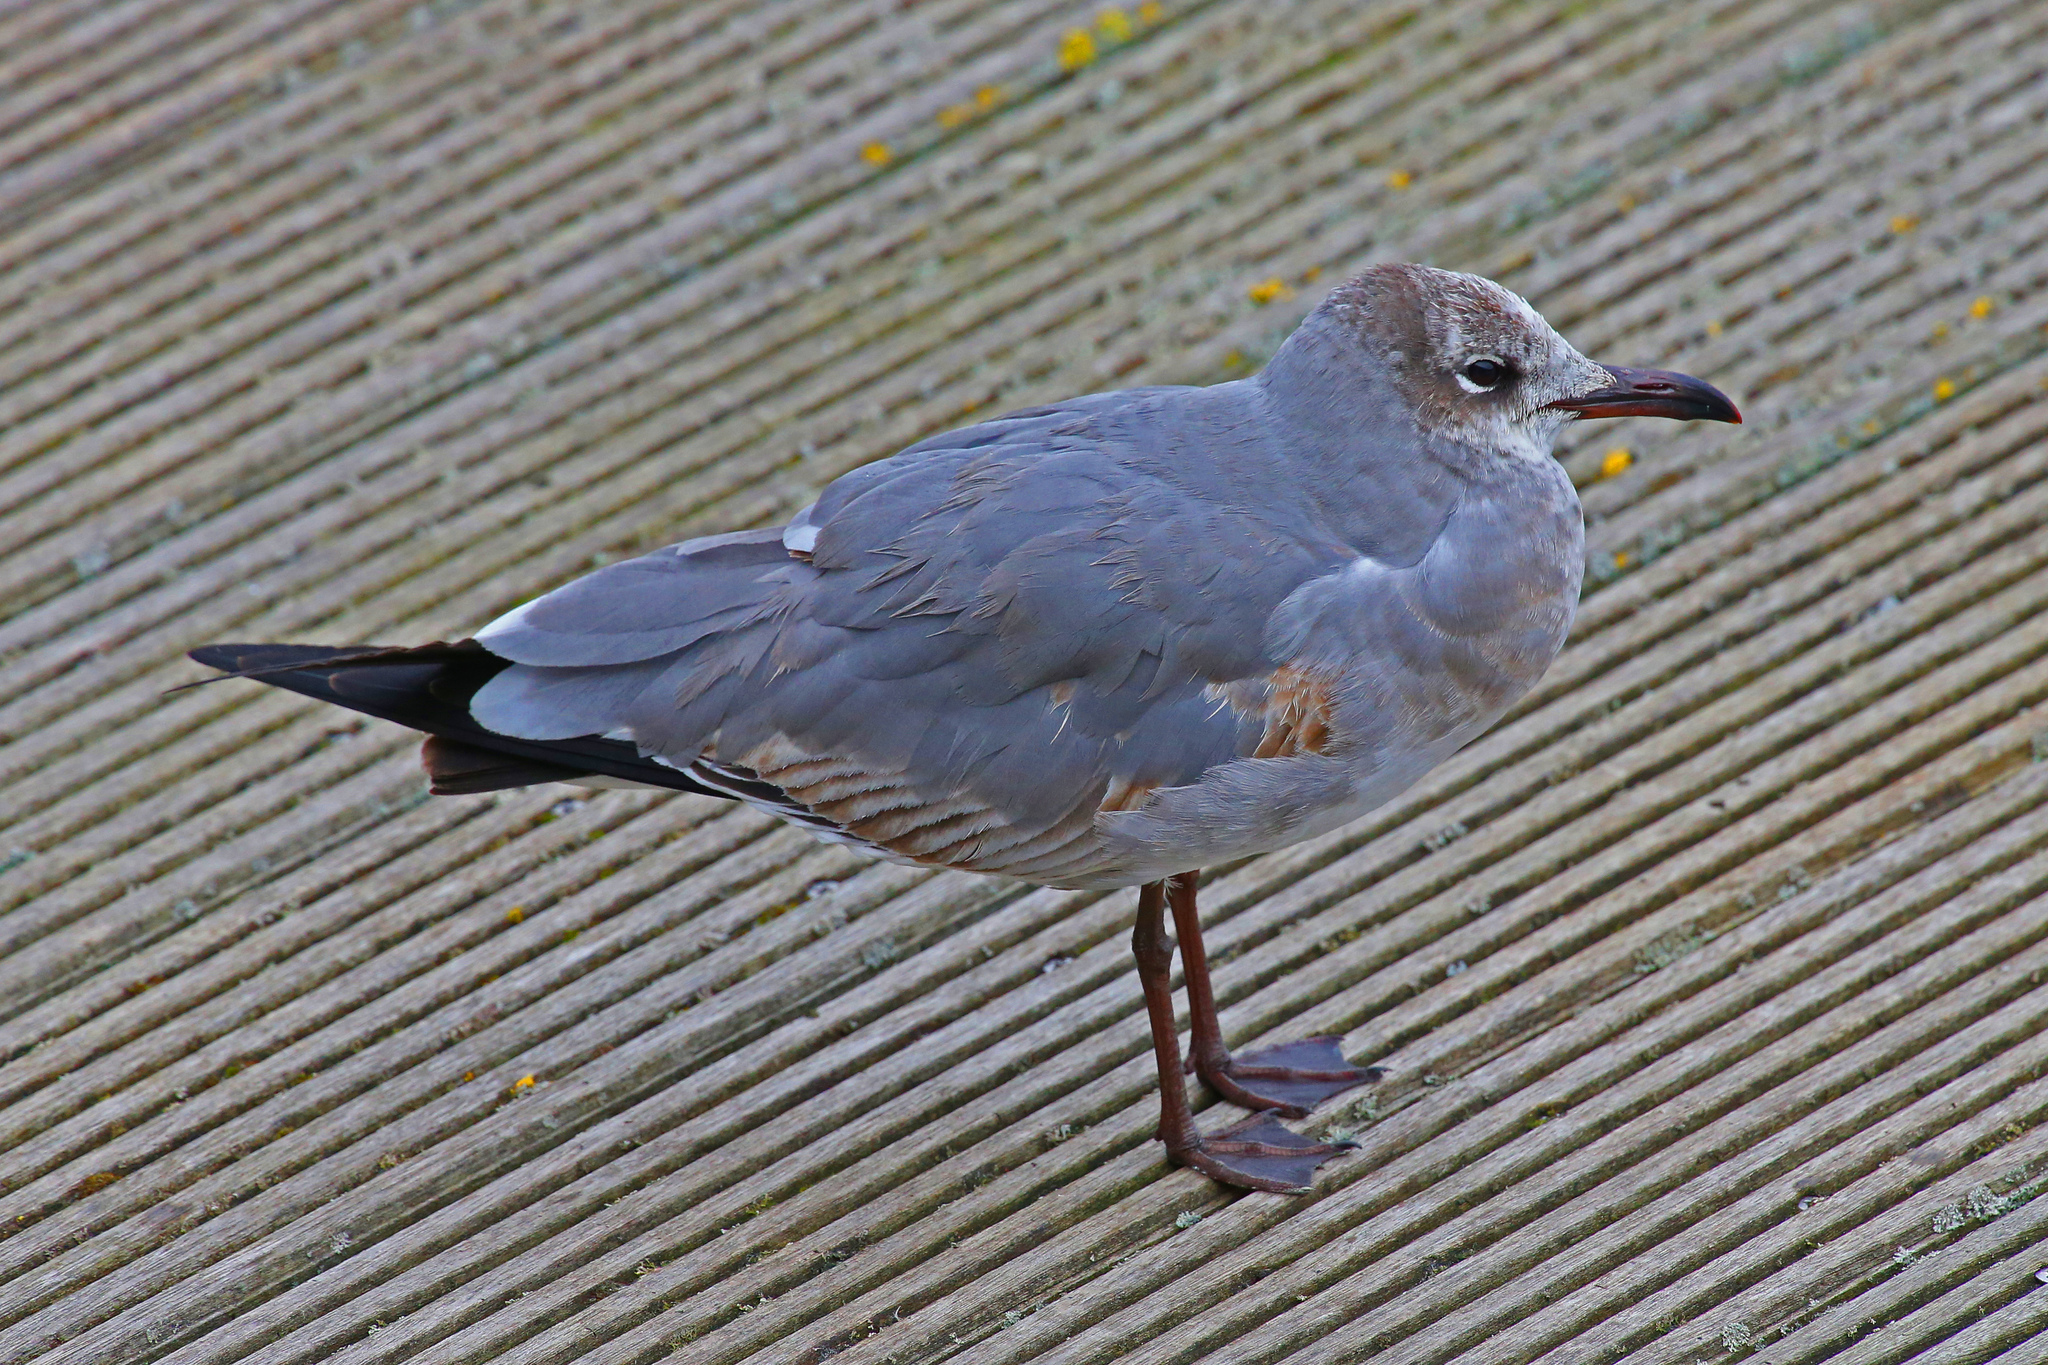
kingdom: Animalia
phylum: Chordata
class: Aves
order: Charadriiformes
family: Laridae
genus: Leucophaeus
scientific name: Leucophaeus atricilla
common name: Laughing gull
